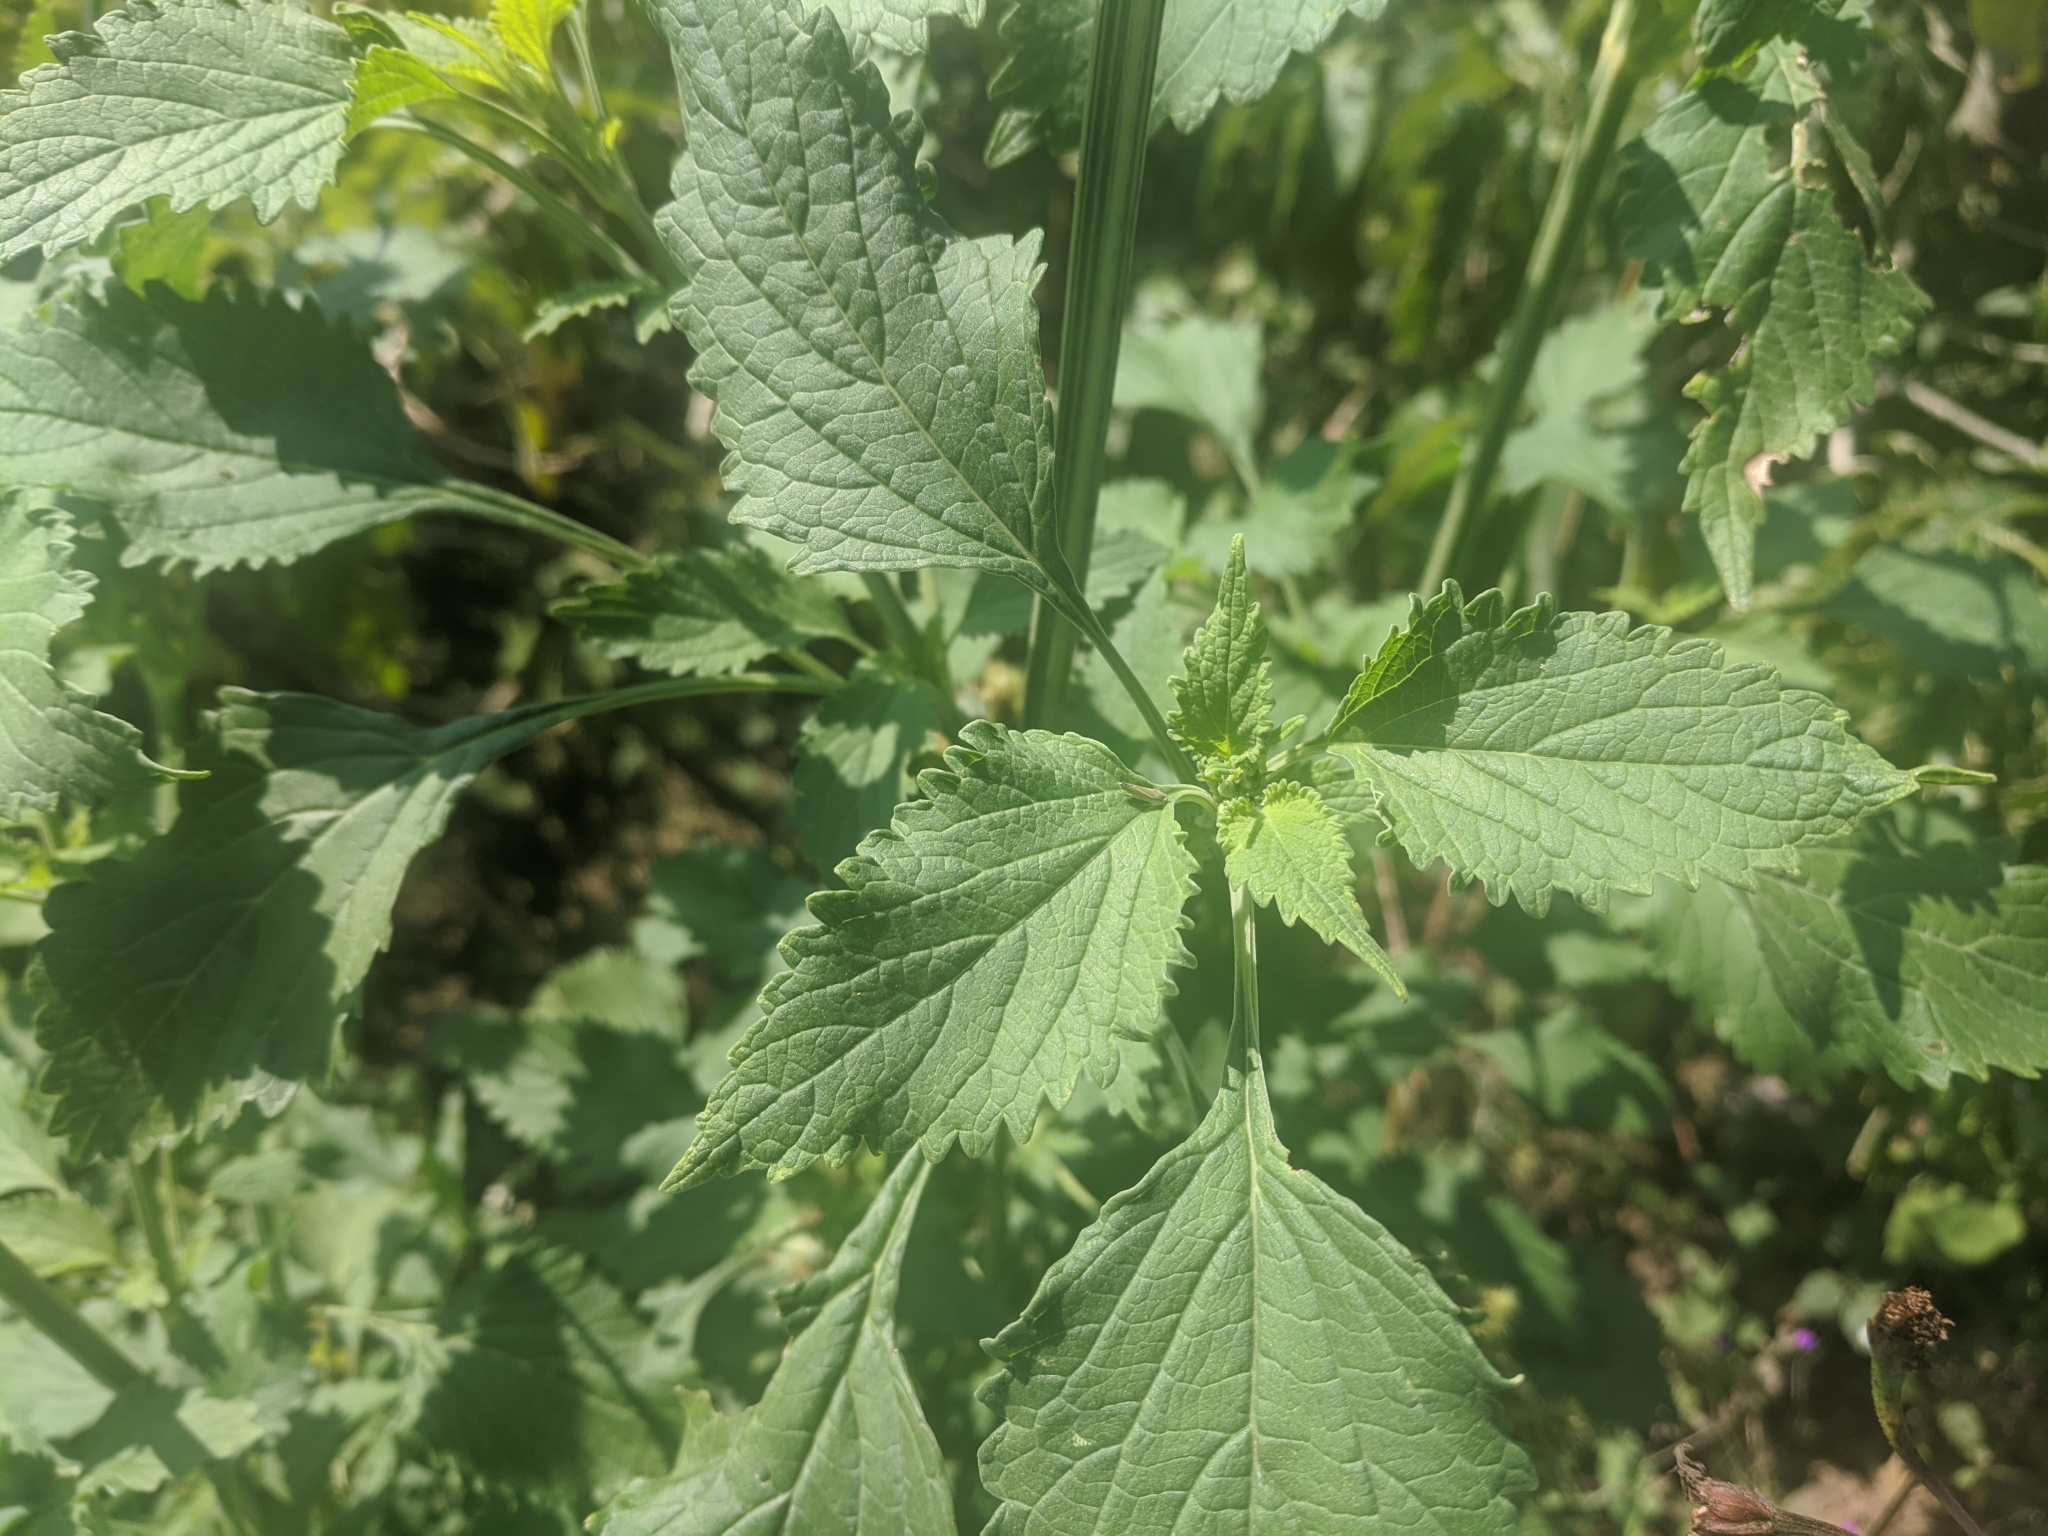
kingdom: Plantae
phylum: Tracheophyta
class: Magnoliopsida
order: Lamiales
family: Lamiaceae
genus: Leonotis
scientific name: Leonotis nepetifolia
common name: Christmas candlestick
